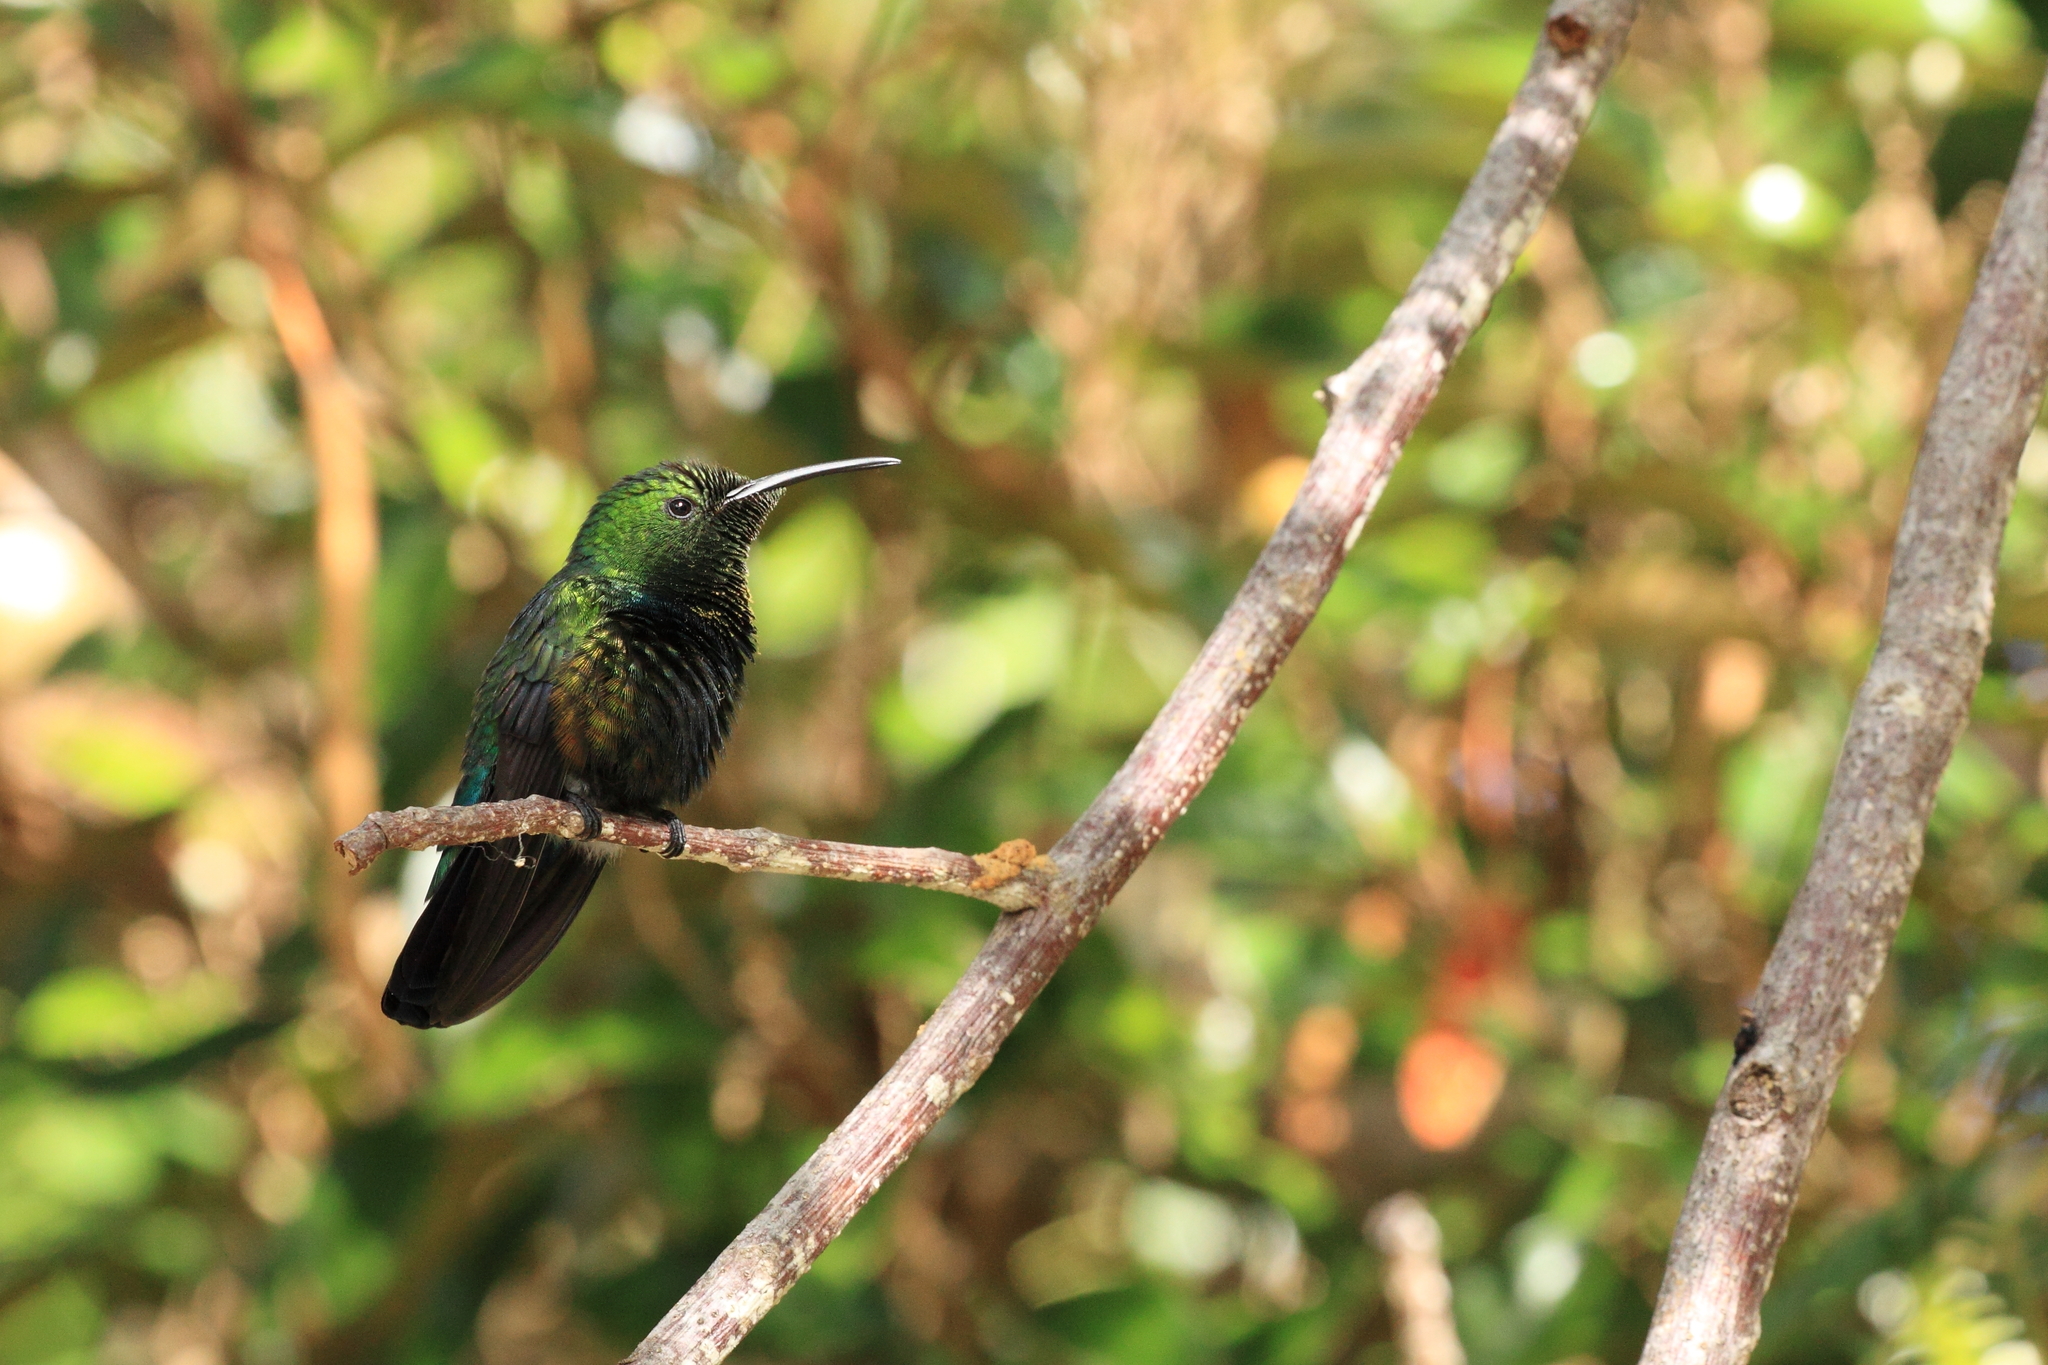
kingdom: Animalia
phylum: Chordata
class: Aves
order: Apodiformes
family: Trochilidae
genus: Eulampis
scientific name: Eulampis holosericeus
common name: Green-throated carib
